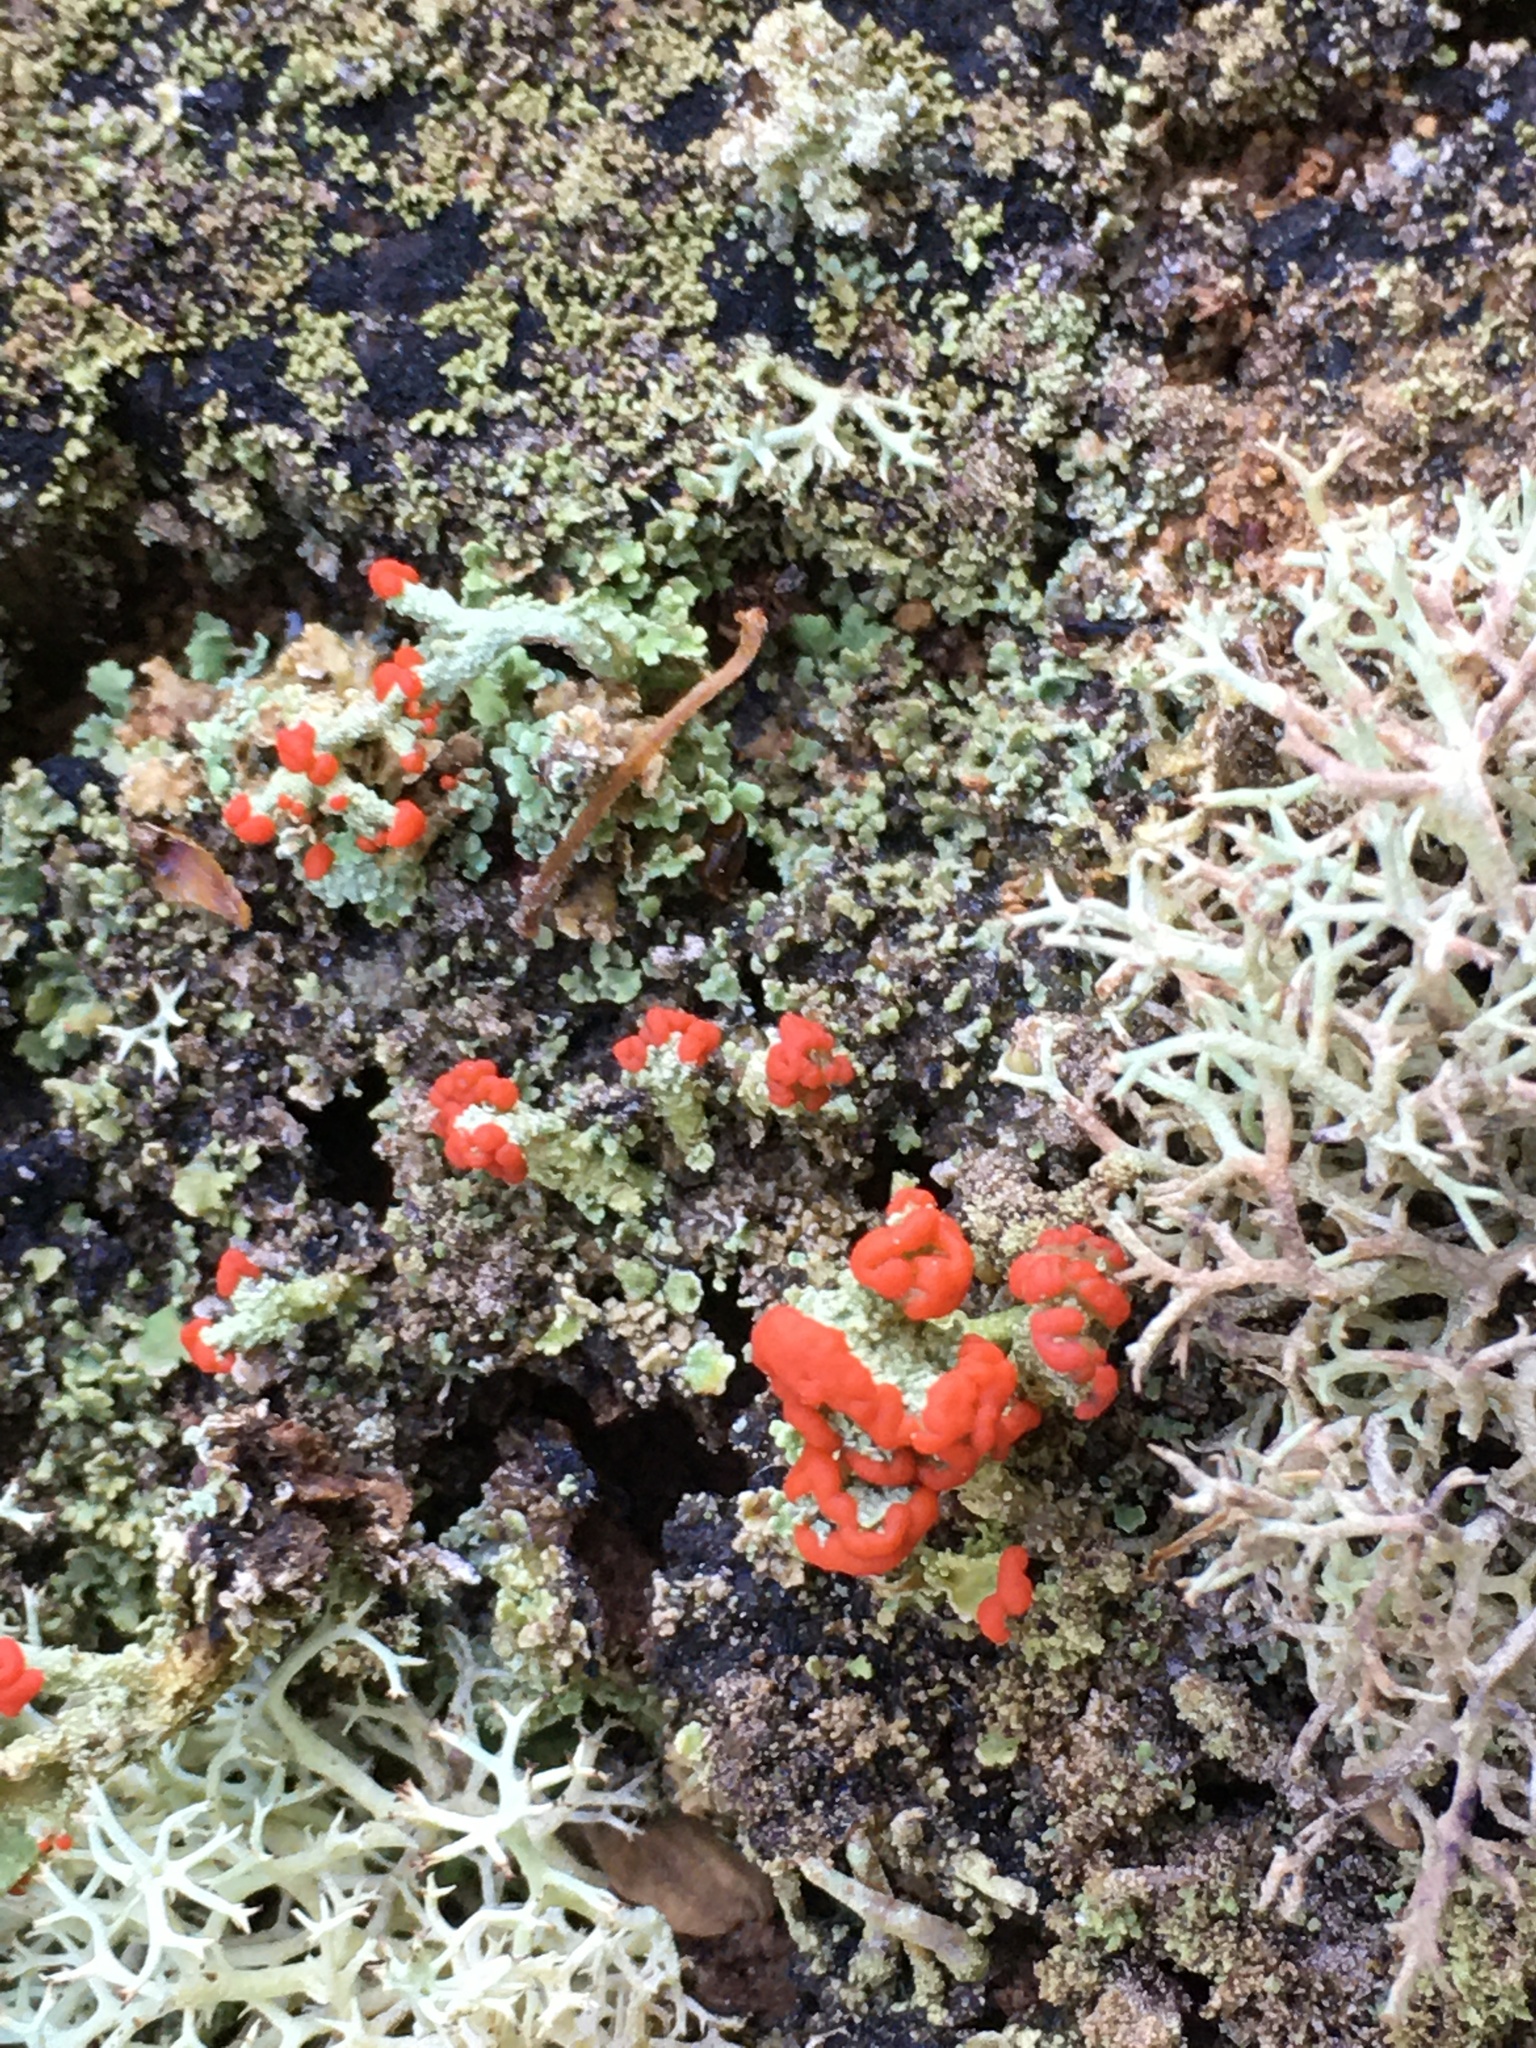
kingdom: Fungi
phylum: Ascomycota
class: Lecanoromycetes
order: Lecanorales
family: Cladoniaceae
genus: Cladonia
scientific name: Cladonia cristatella
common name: British soldier lichen
